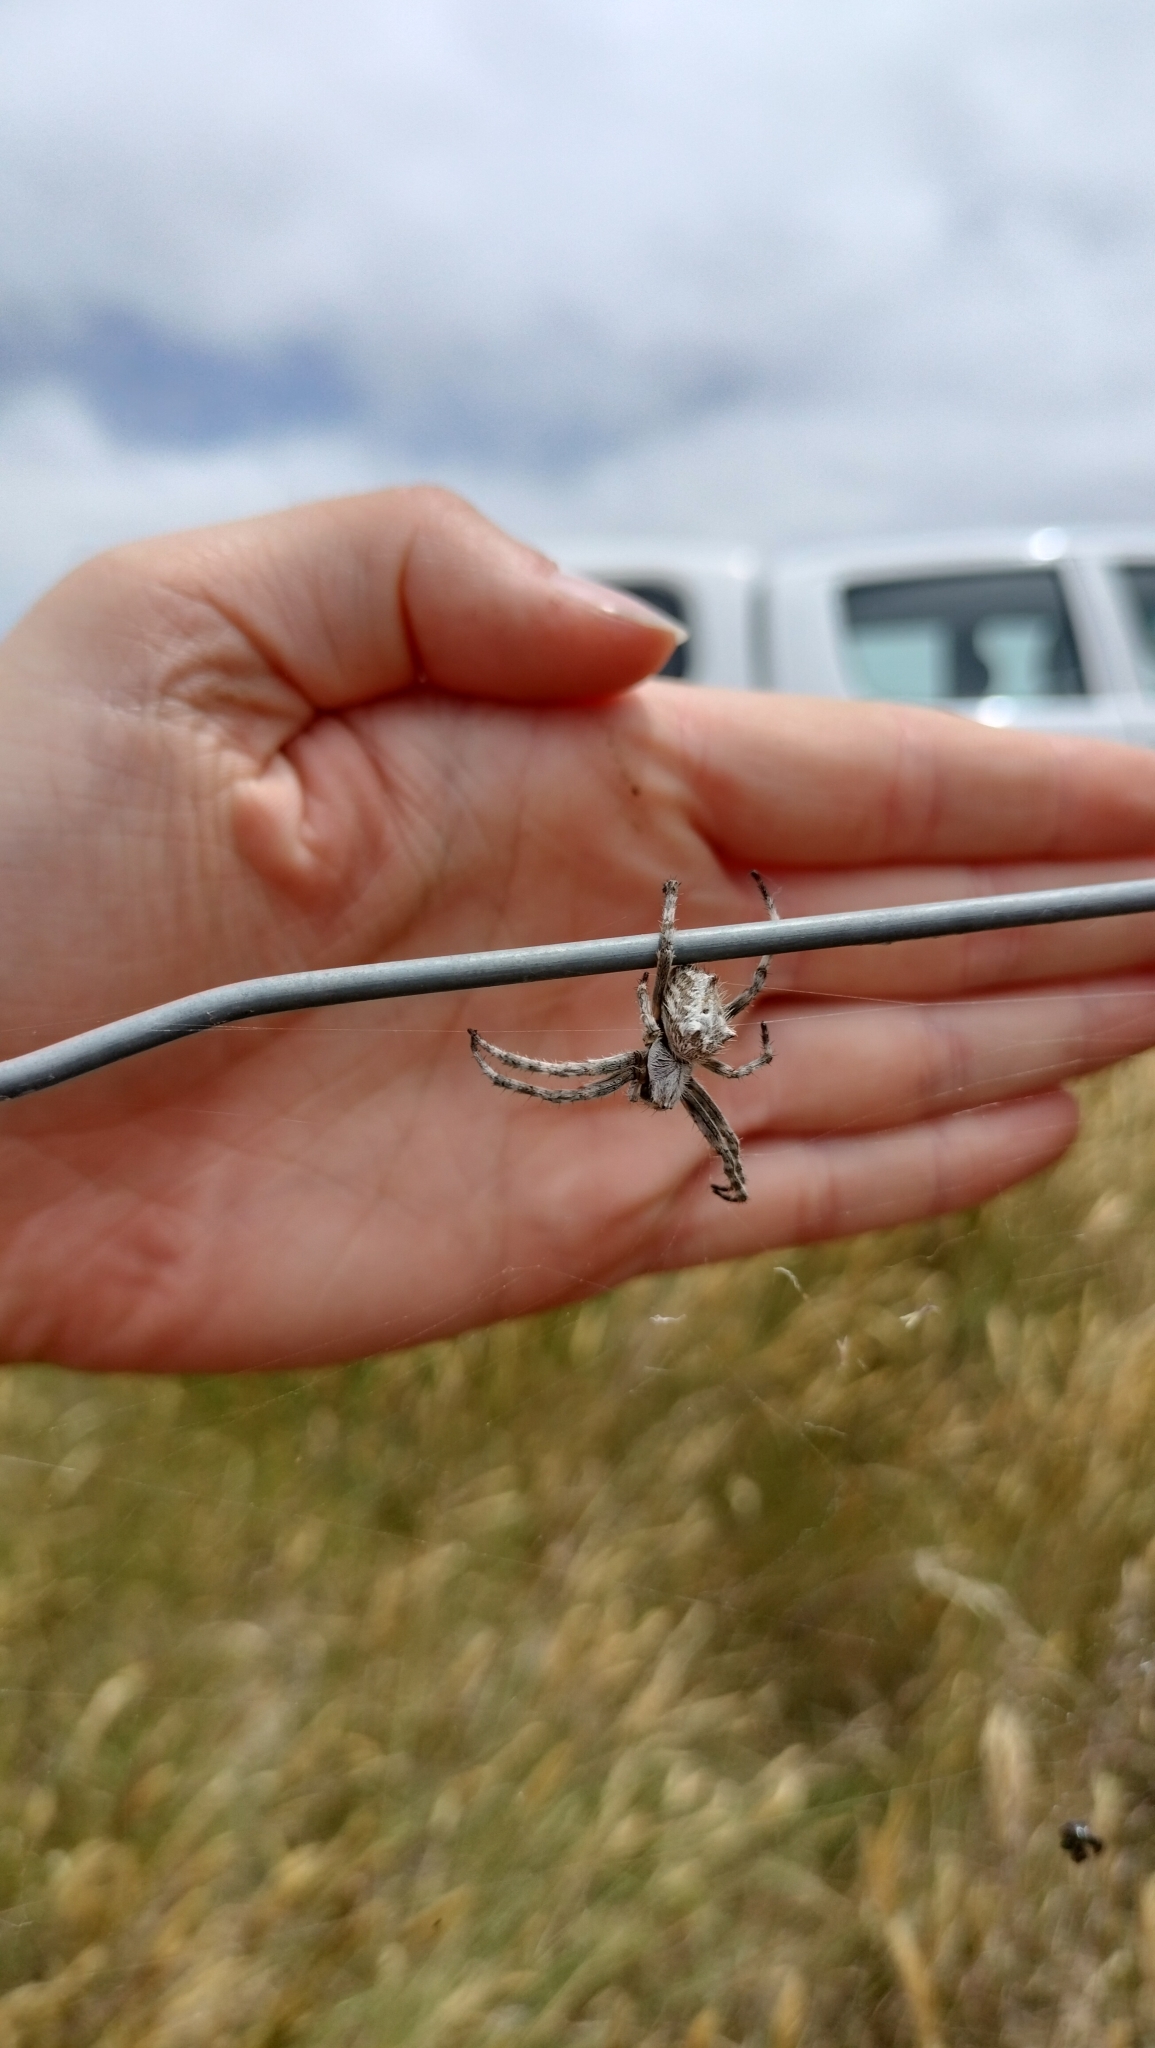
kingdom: Animalia
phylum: Arthropoda
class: Arachnida
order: Araneae
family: Araneidae
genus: Backobourkia
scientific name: Backobourkia brouni
